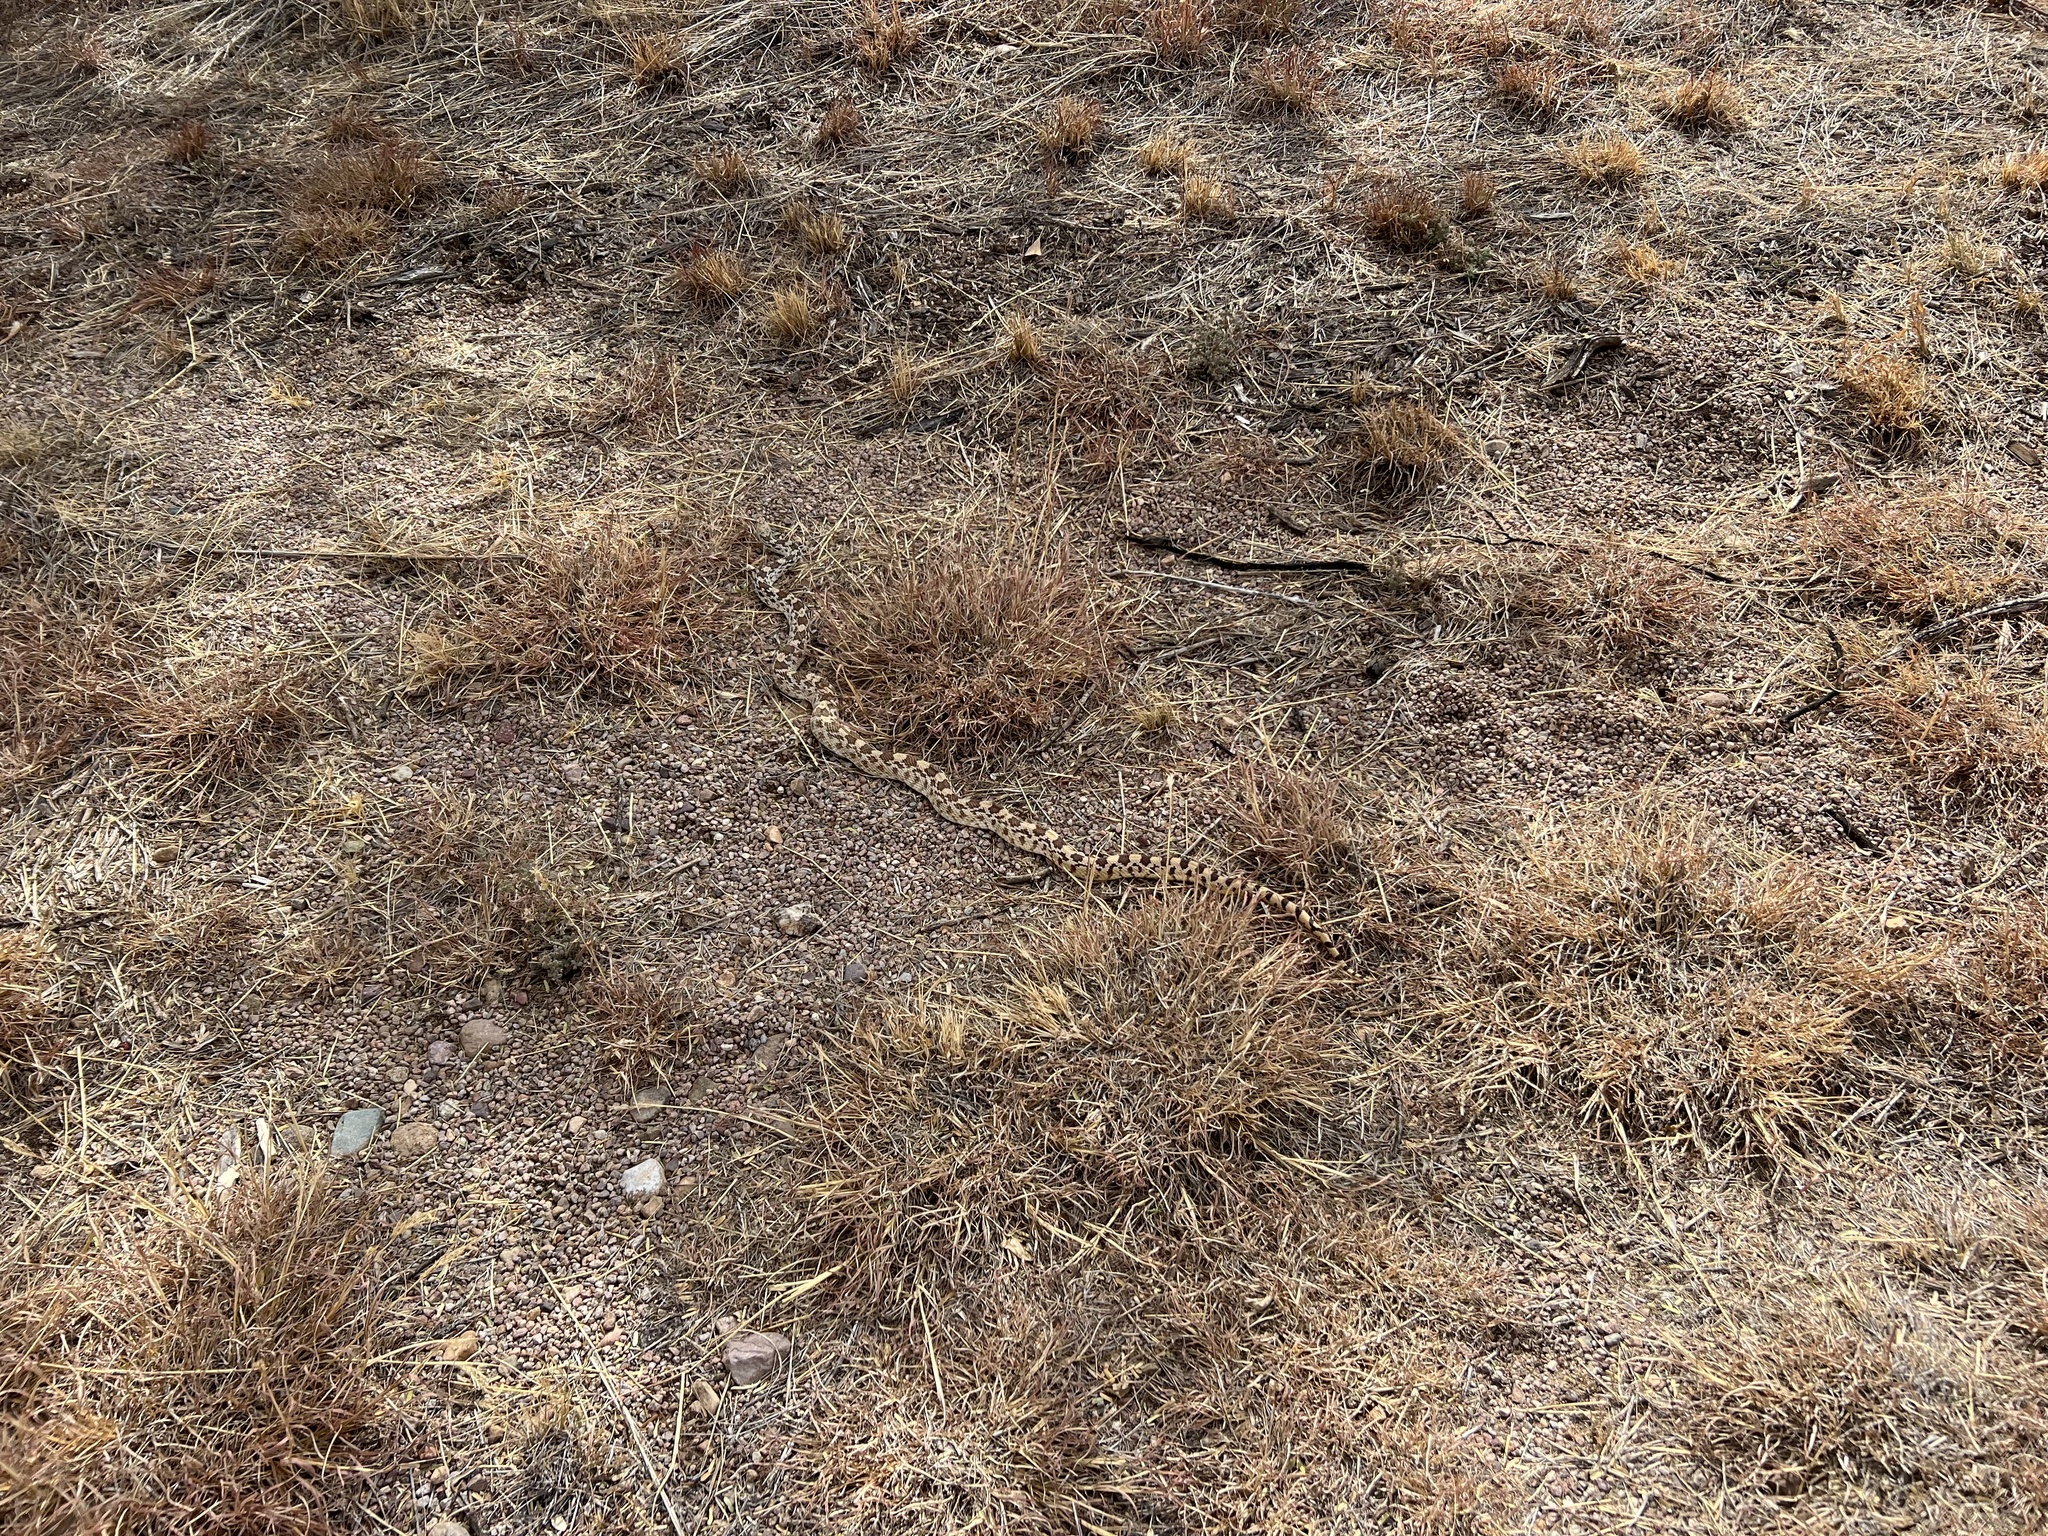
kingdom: Animalia
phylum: Chordata
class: Squamata
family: Colubridae
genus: Pituophis
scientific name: Pituophis catenifer
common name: Gopher snake
